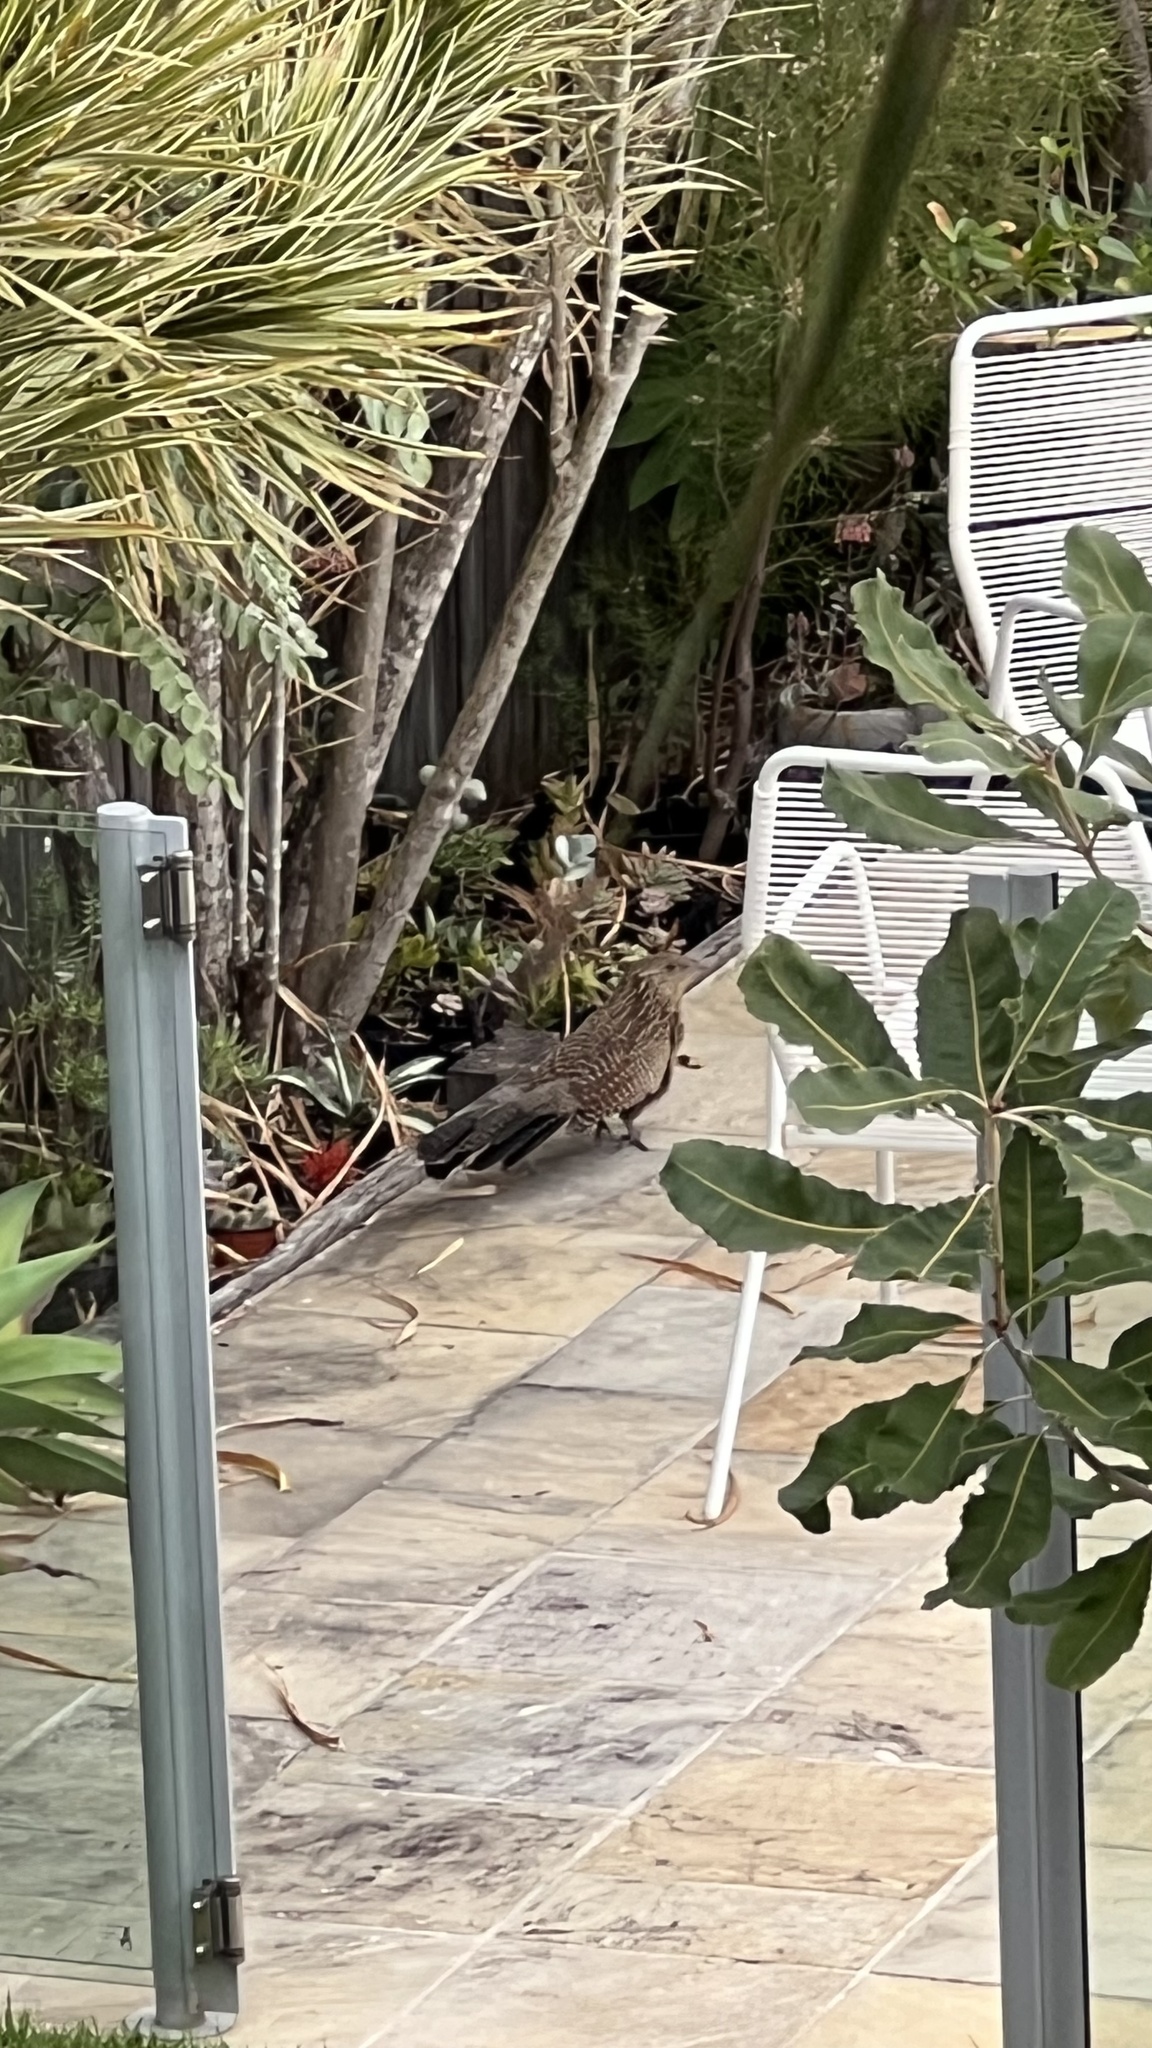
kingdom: Animalia
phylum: Chordata
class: Aves
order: Cuculiformes
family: Cuculidae
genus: Centropus
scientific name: Centropus phasianinus
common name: Pheasant coucal
